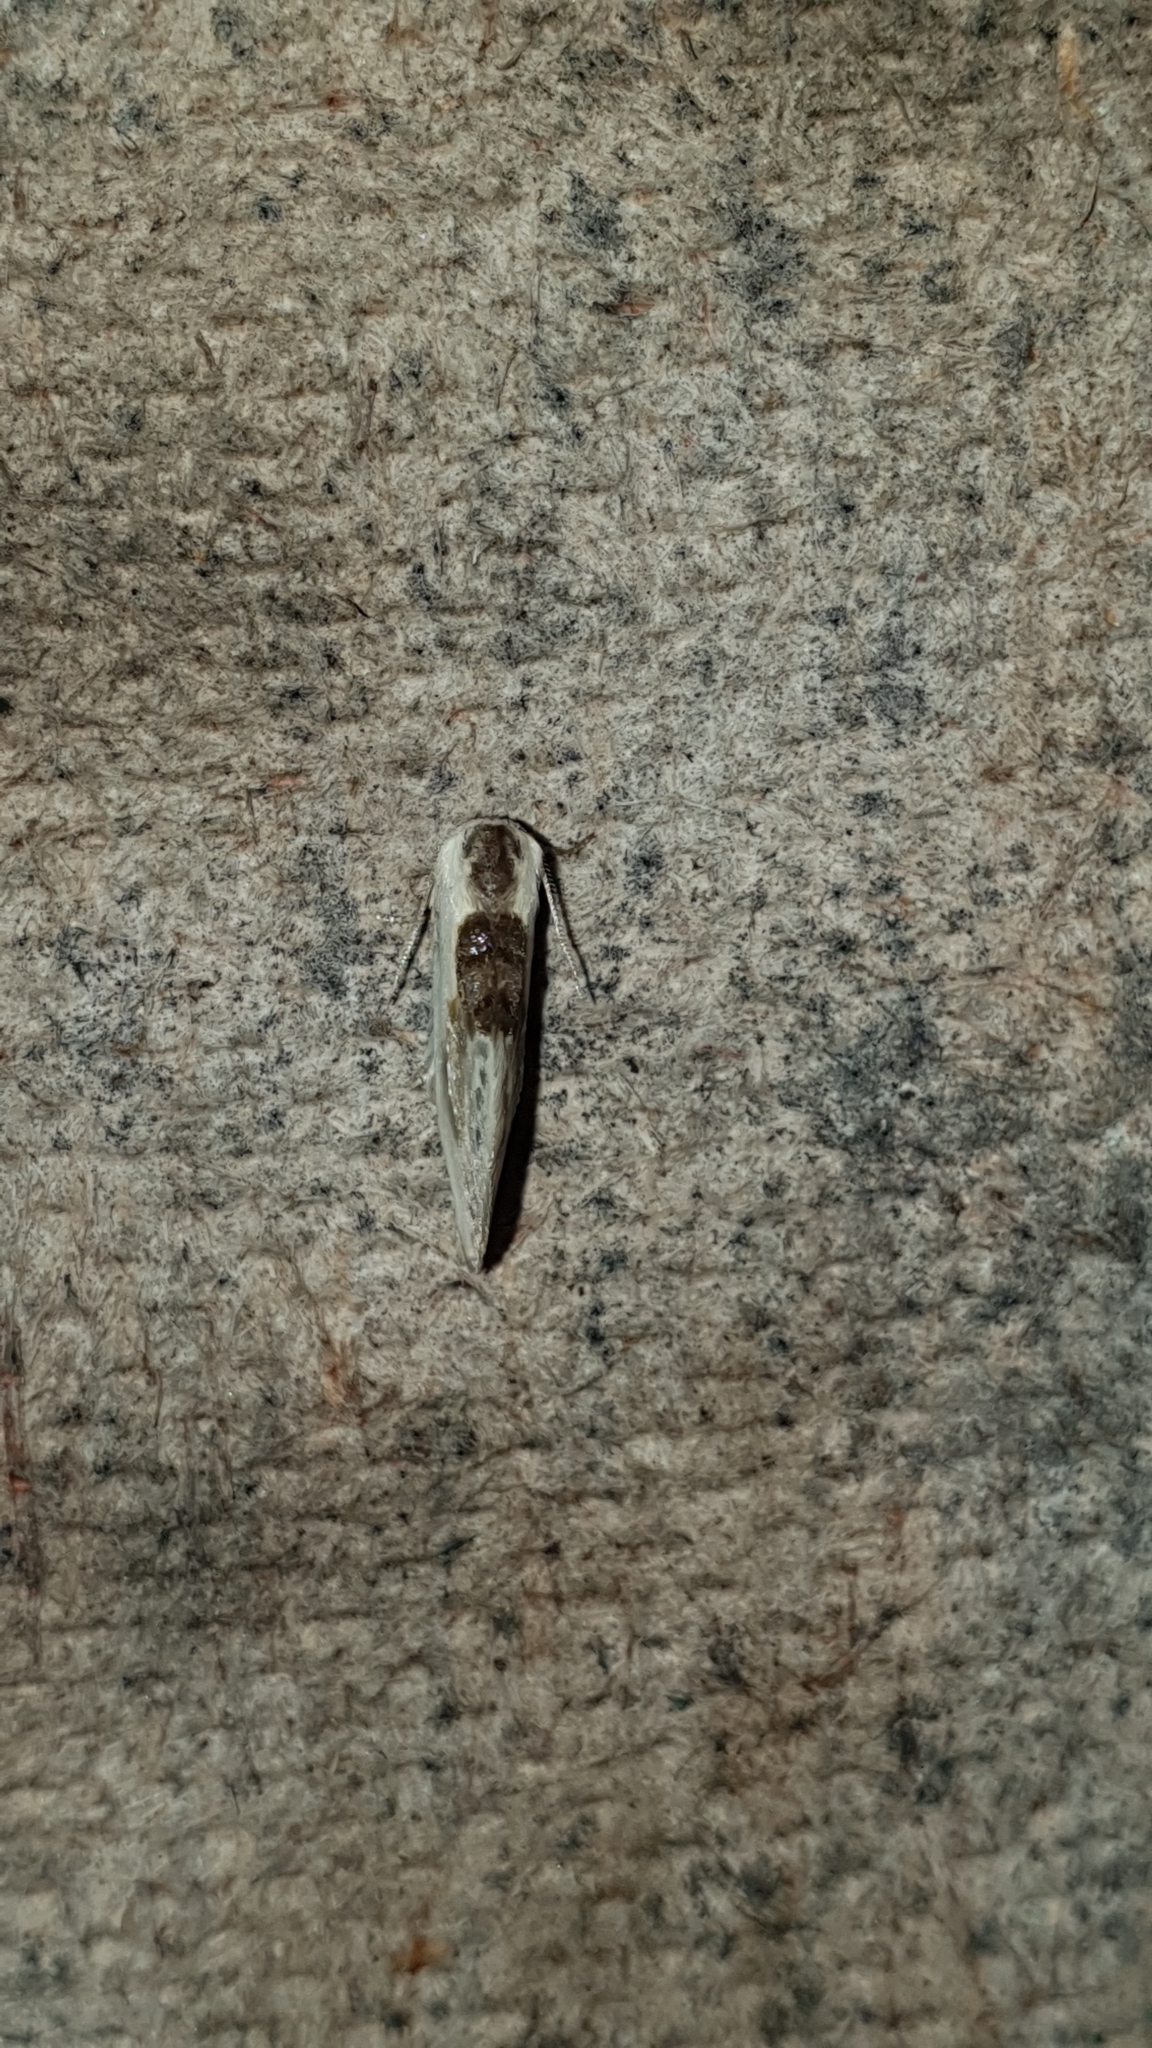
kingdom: Animalia
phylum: Arthropoda
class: Insecta
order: Lepidoptera
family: Drepanidae
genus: Cilix
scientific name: Cilix glaucata
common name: Chinese character
